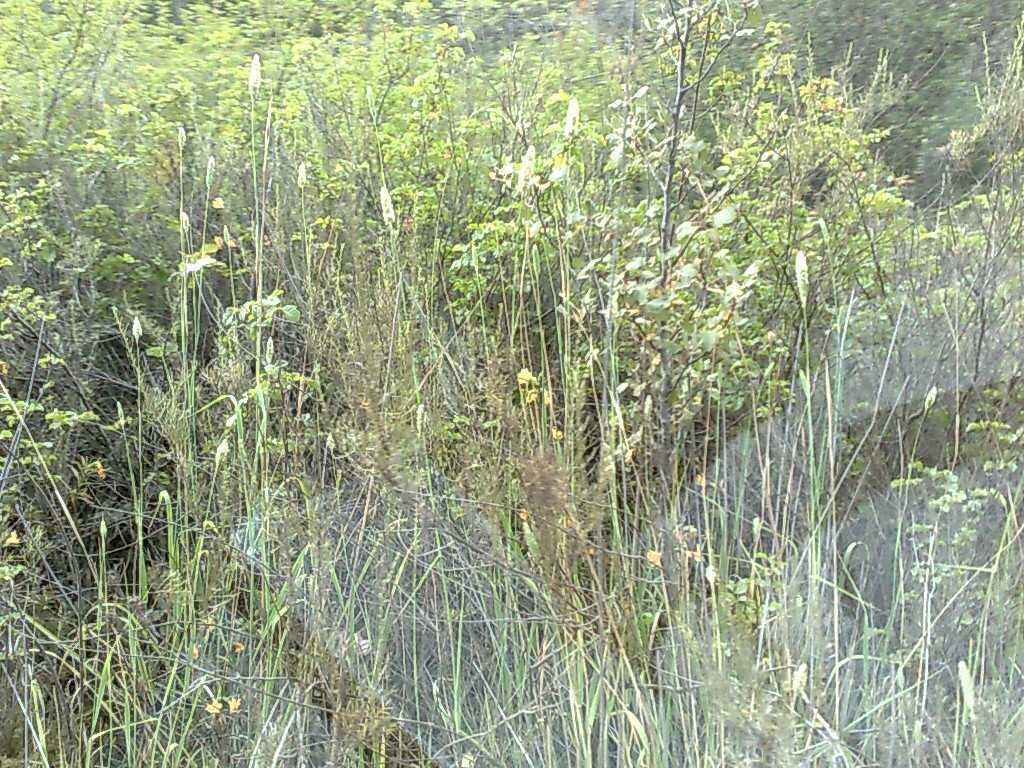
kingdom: Plantae
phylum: Tracheophyta
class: Liliopsida
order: Poales
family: Poaceae
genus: Phalaris
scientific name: Phalaris aquatica
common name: Bulbous canary-grass
